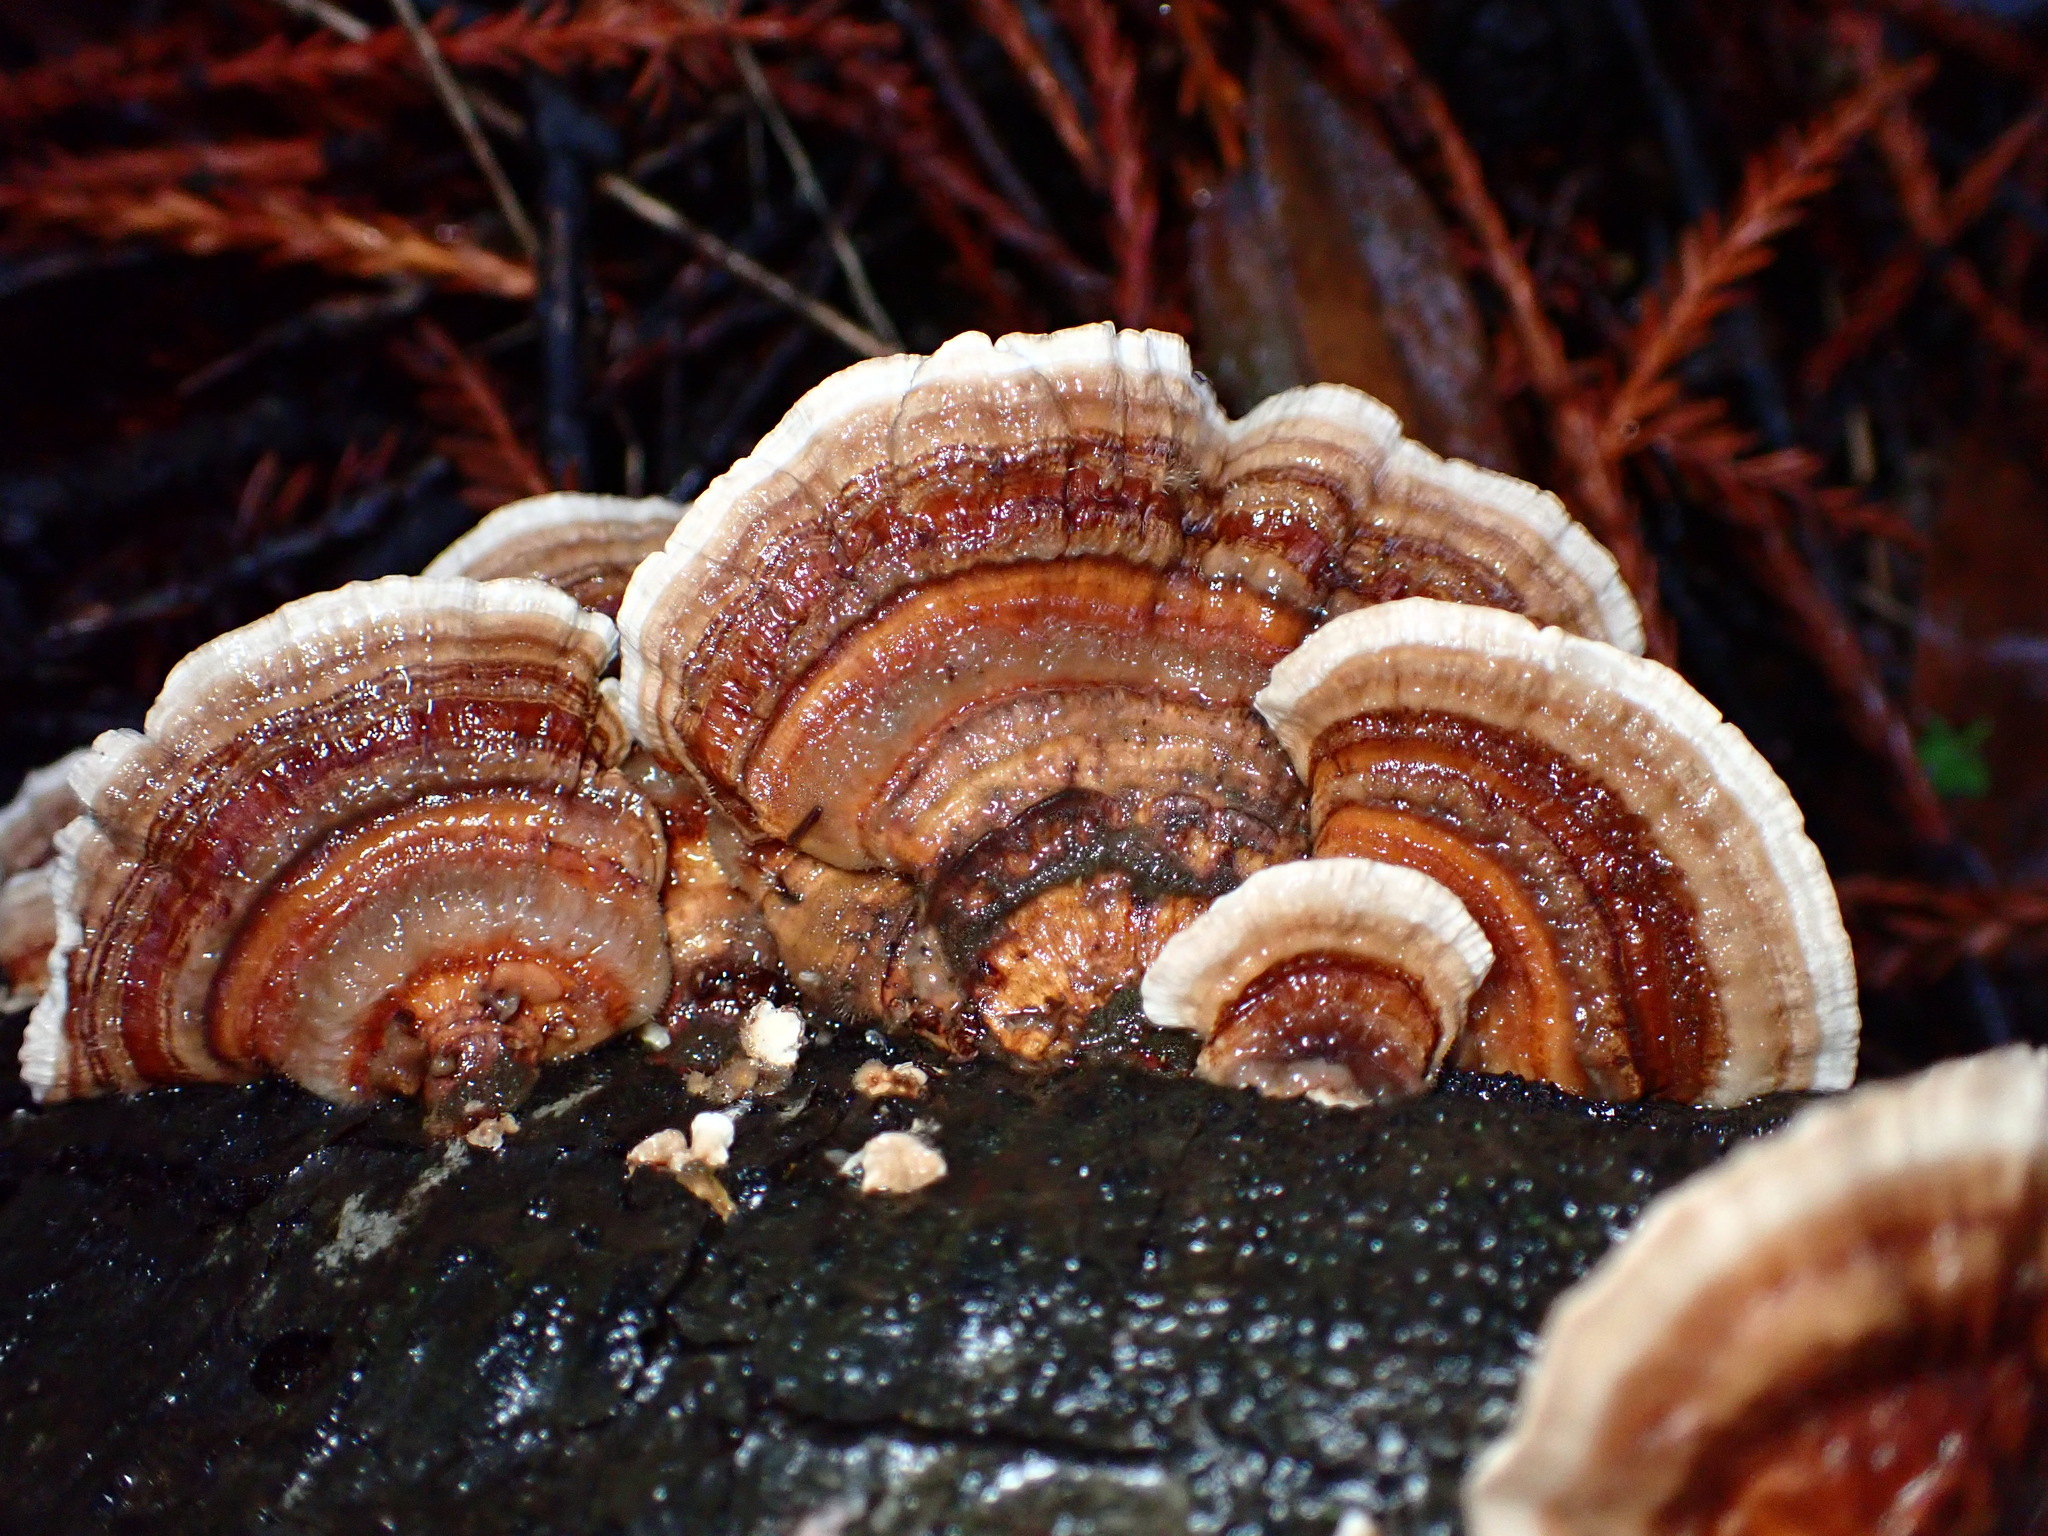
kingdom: Fungi
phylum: Basidiomycota
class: Agaricomycetes
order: Polyporales
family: Polyporaceae
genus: Trametes
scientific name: Trametes versicolor
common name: Turkeytail
